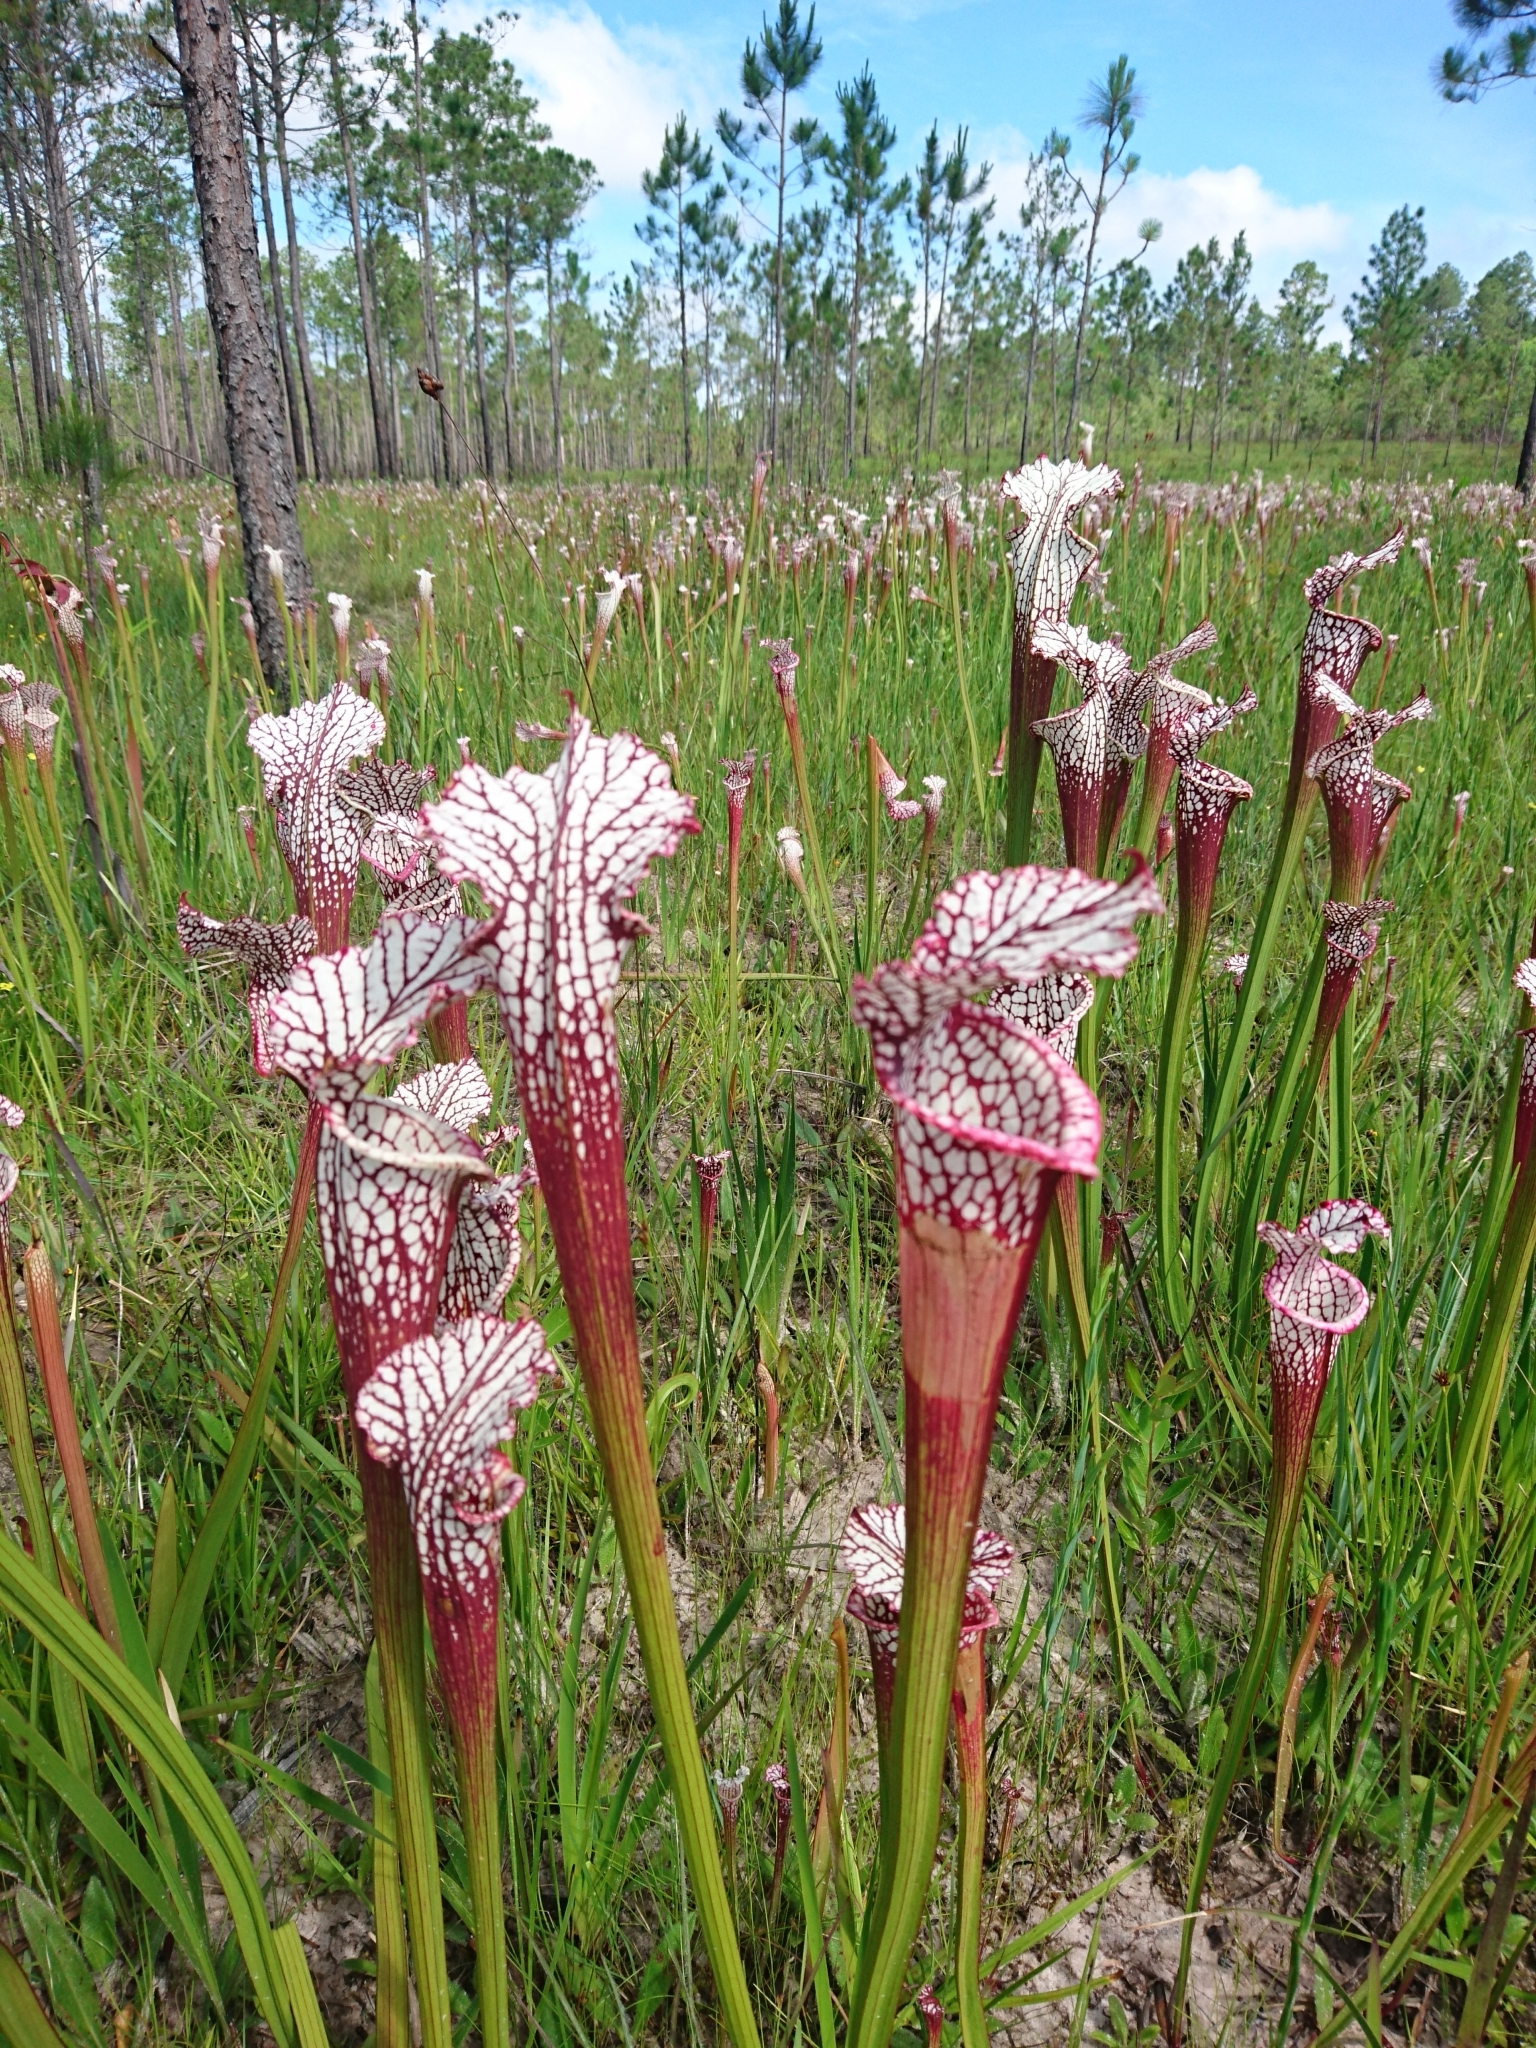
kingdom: Plantae
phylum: Tracheophyta
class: Magnoliopsida
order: Ericales
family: Sarraceniaceae
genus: Sarracenia
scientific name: Sarracenia leucophylla
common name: Purple trumpetleaf
